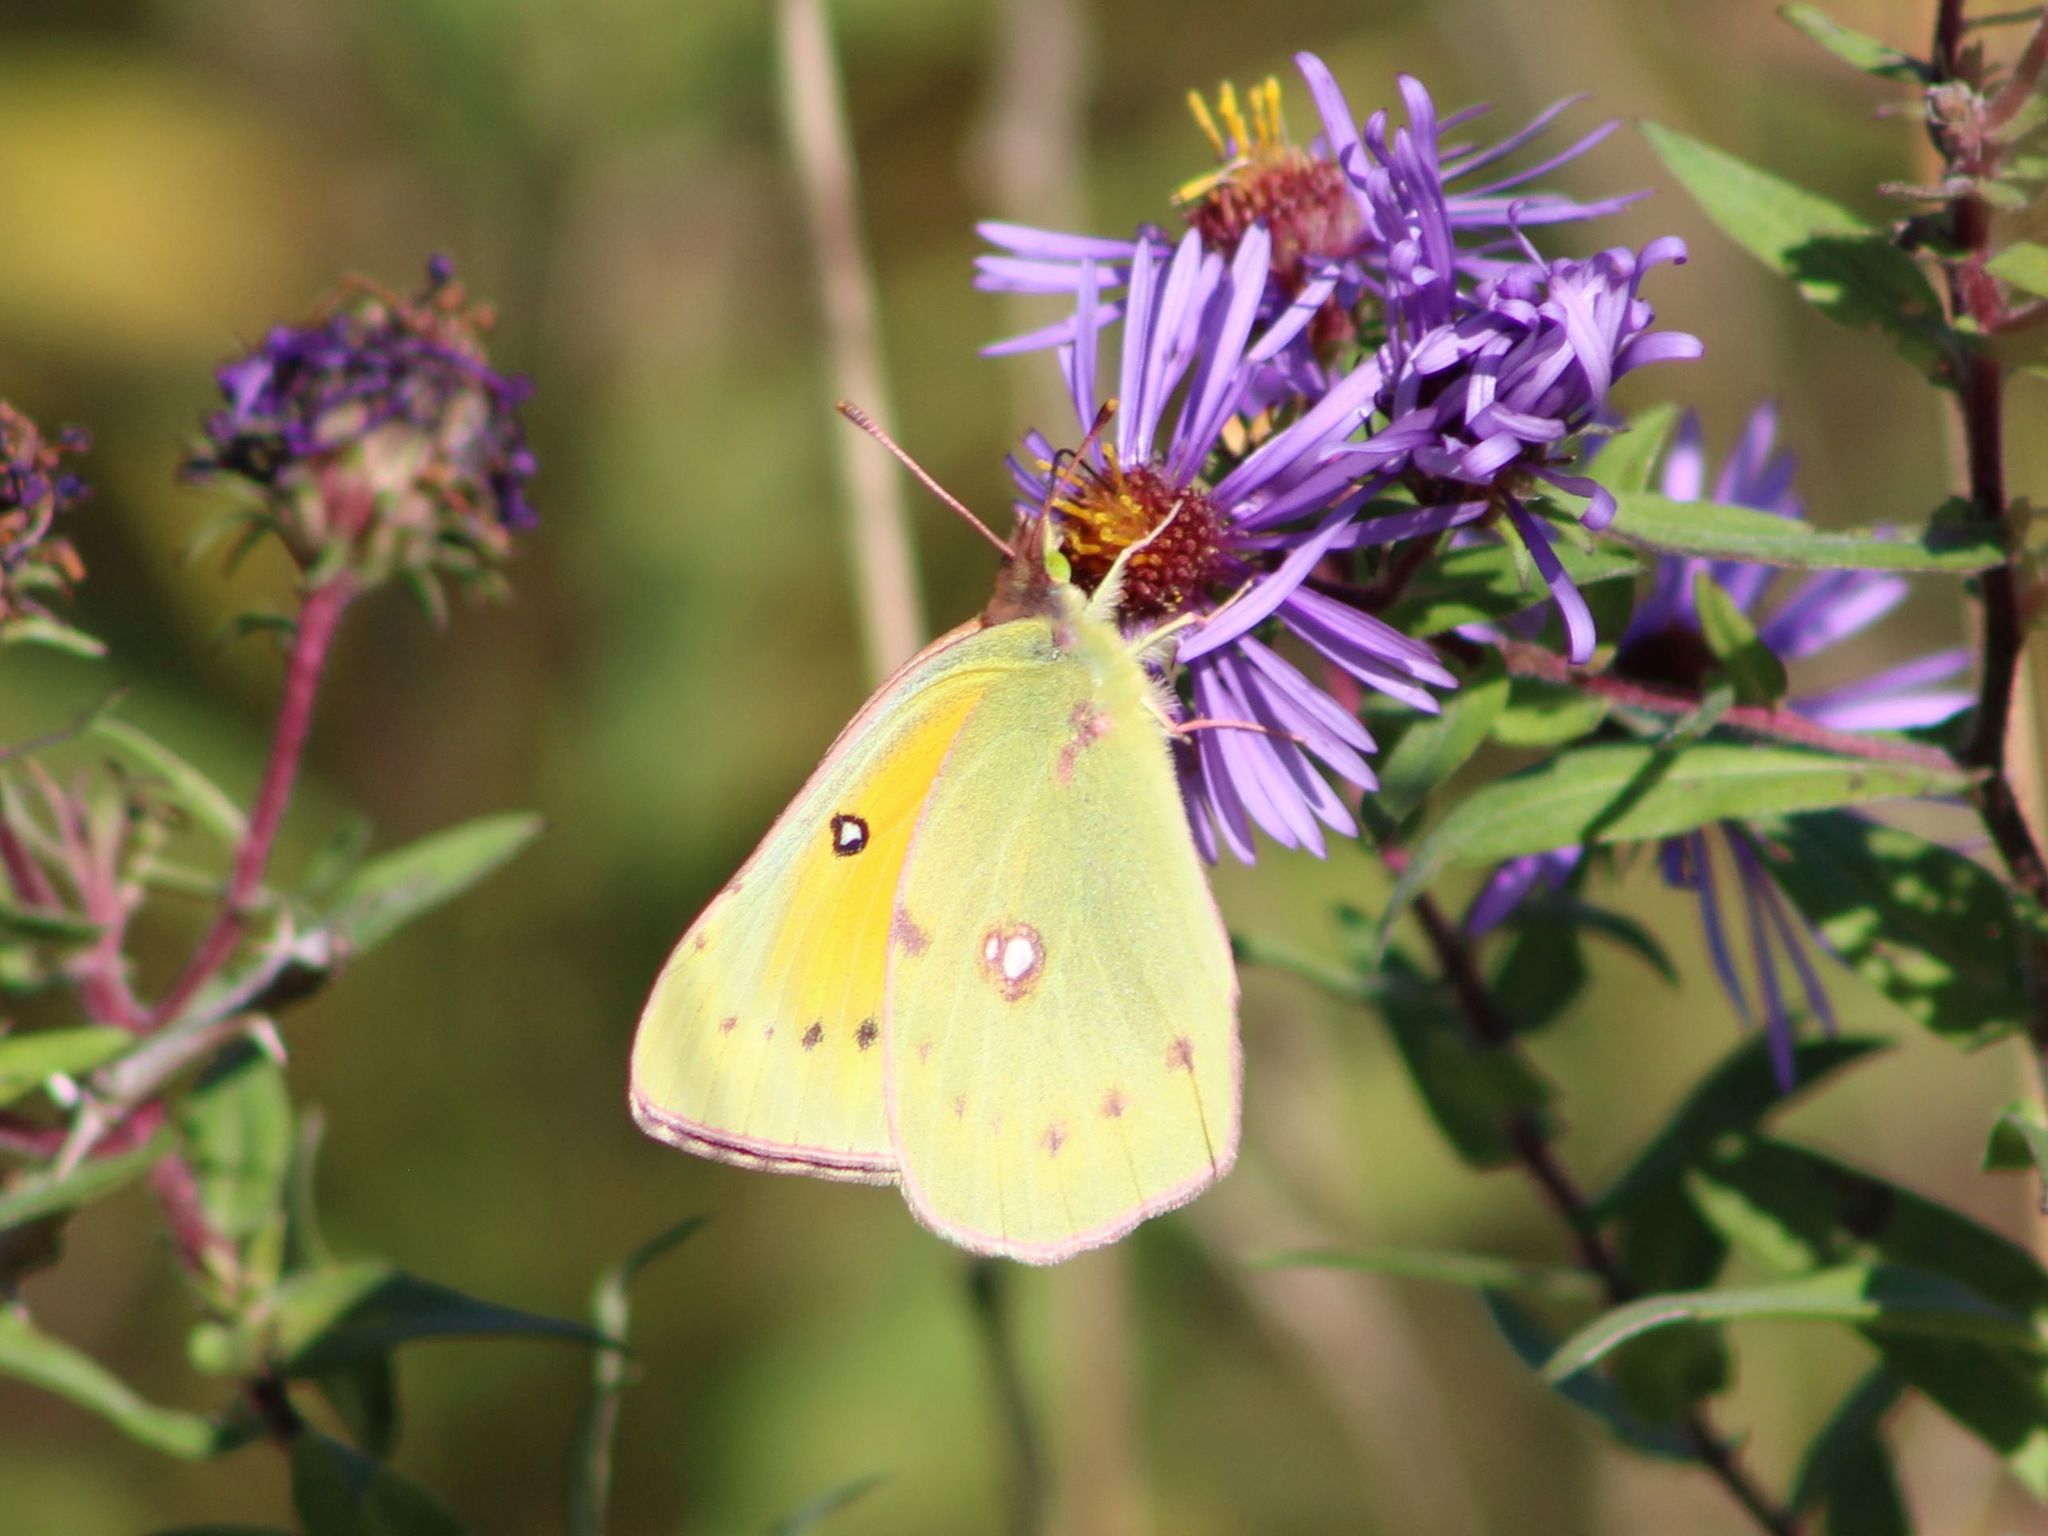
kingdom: Animalia
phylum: Arthropoda
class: Insecta
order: Lepidoptera
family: Pieridae
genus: Colias
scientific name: Colias eurytheme
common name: Alfalfa butterfly
